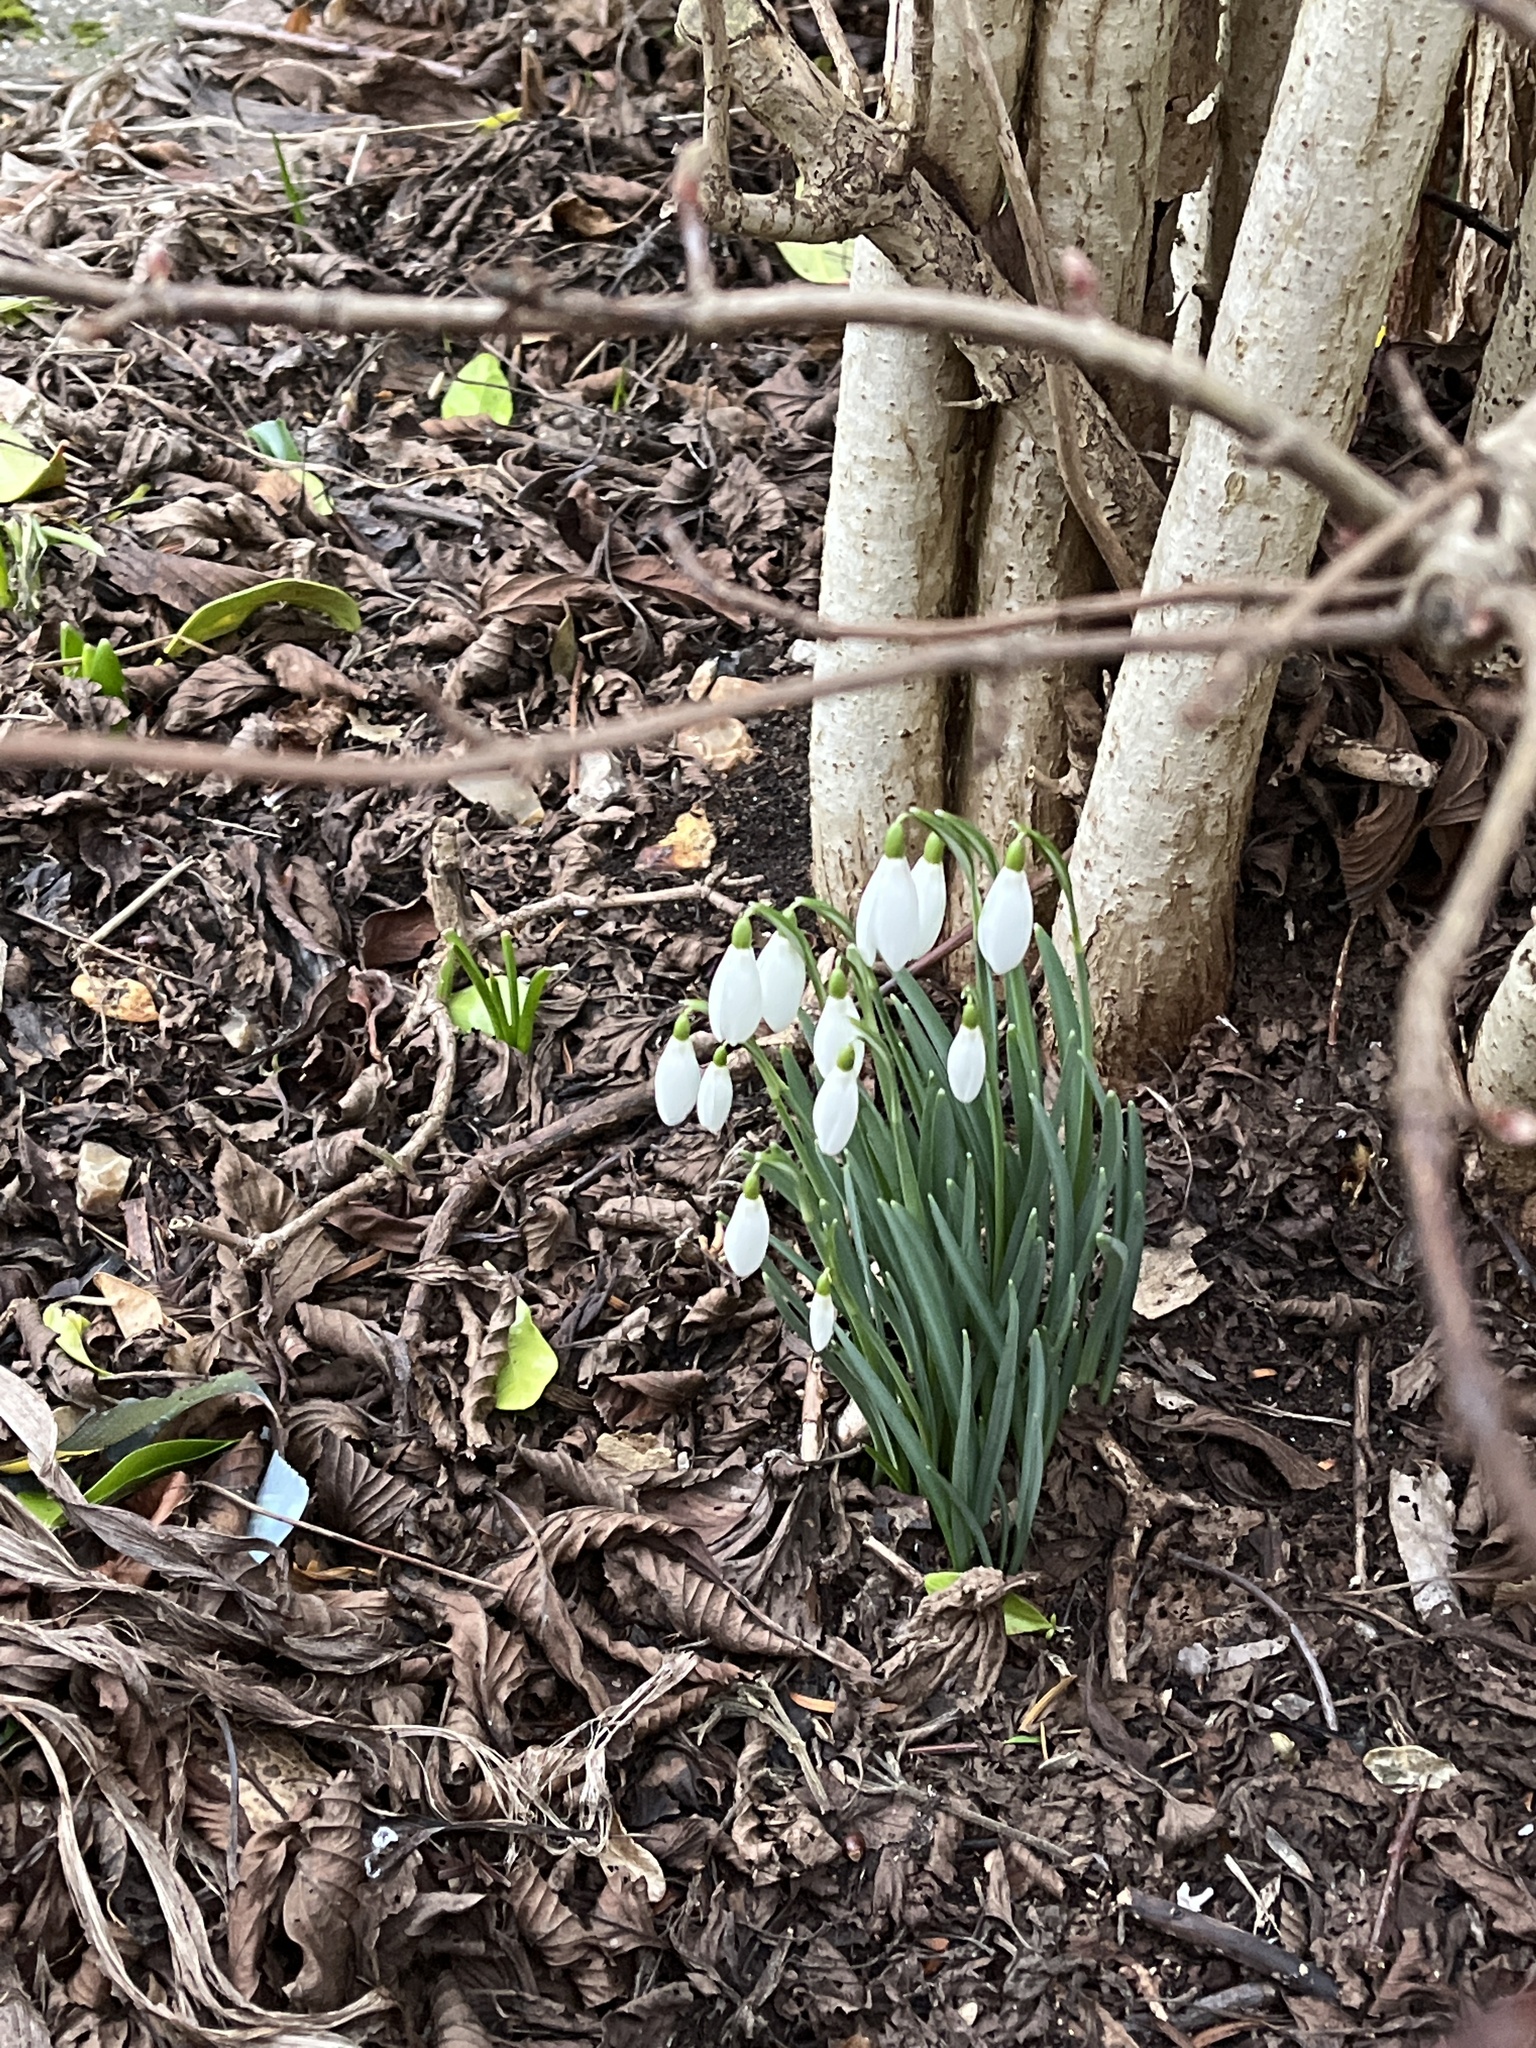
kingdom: Plantae
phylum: Tracheophyta
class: Liliopsida
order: Asparagales
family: Amaryllidaceae
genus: Galanthus
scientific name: Galanthus nivalis
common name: Snowdrop
